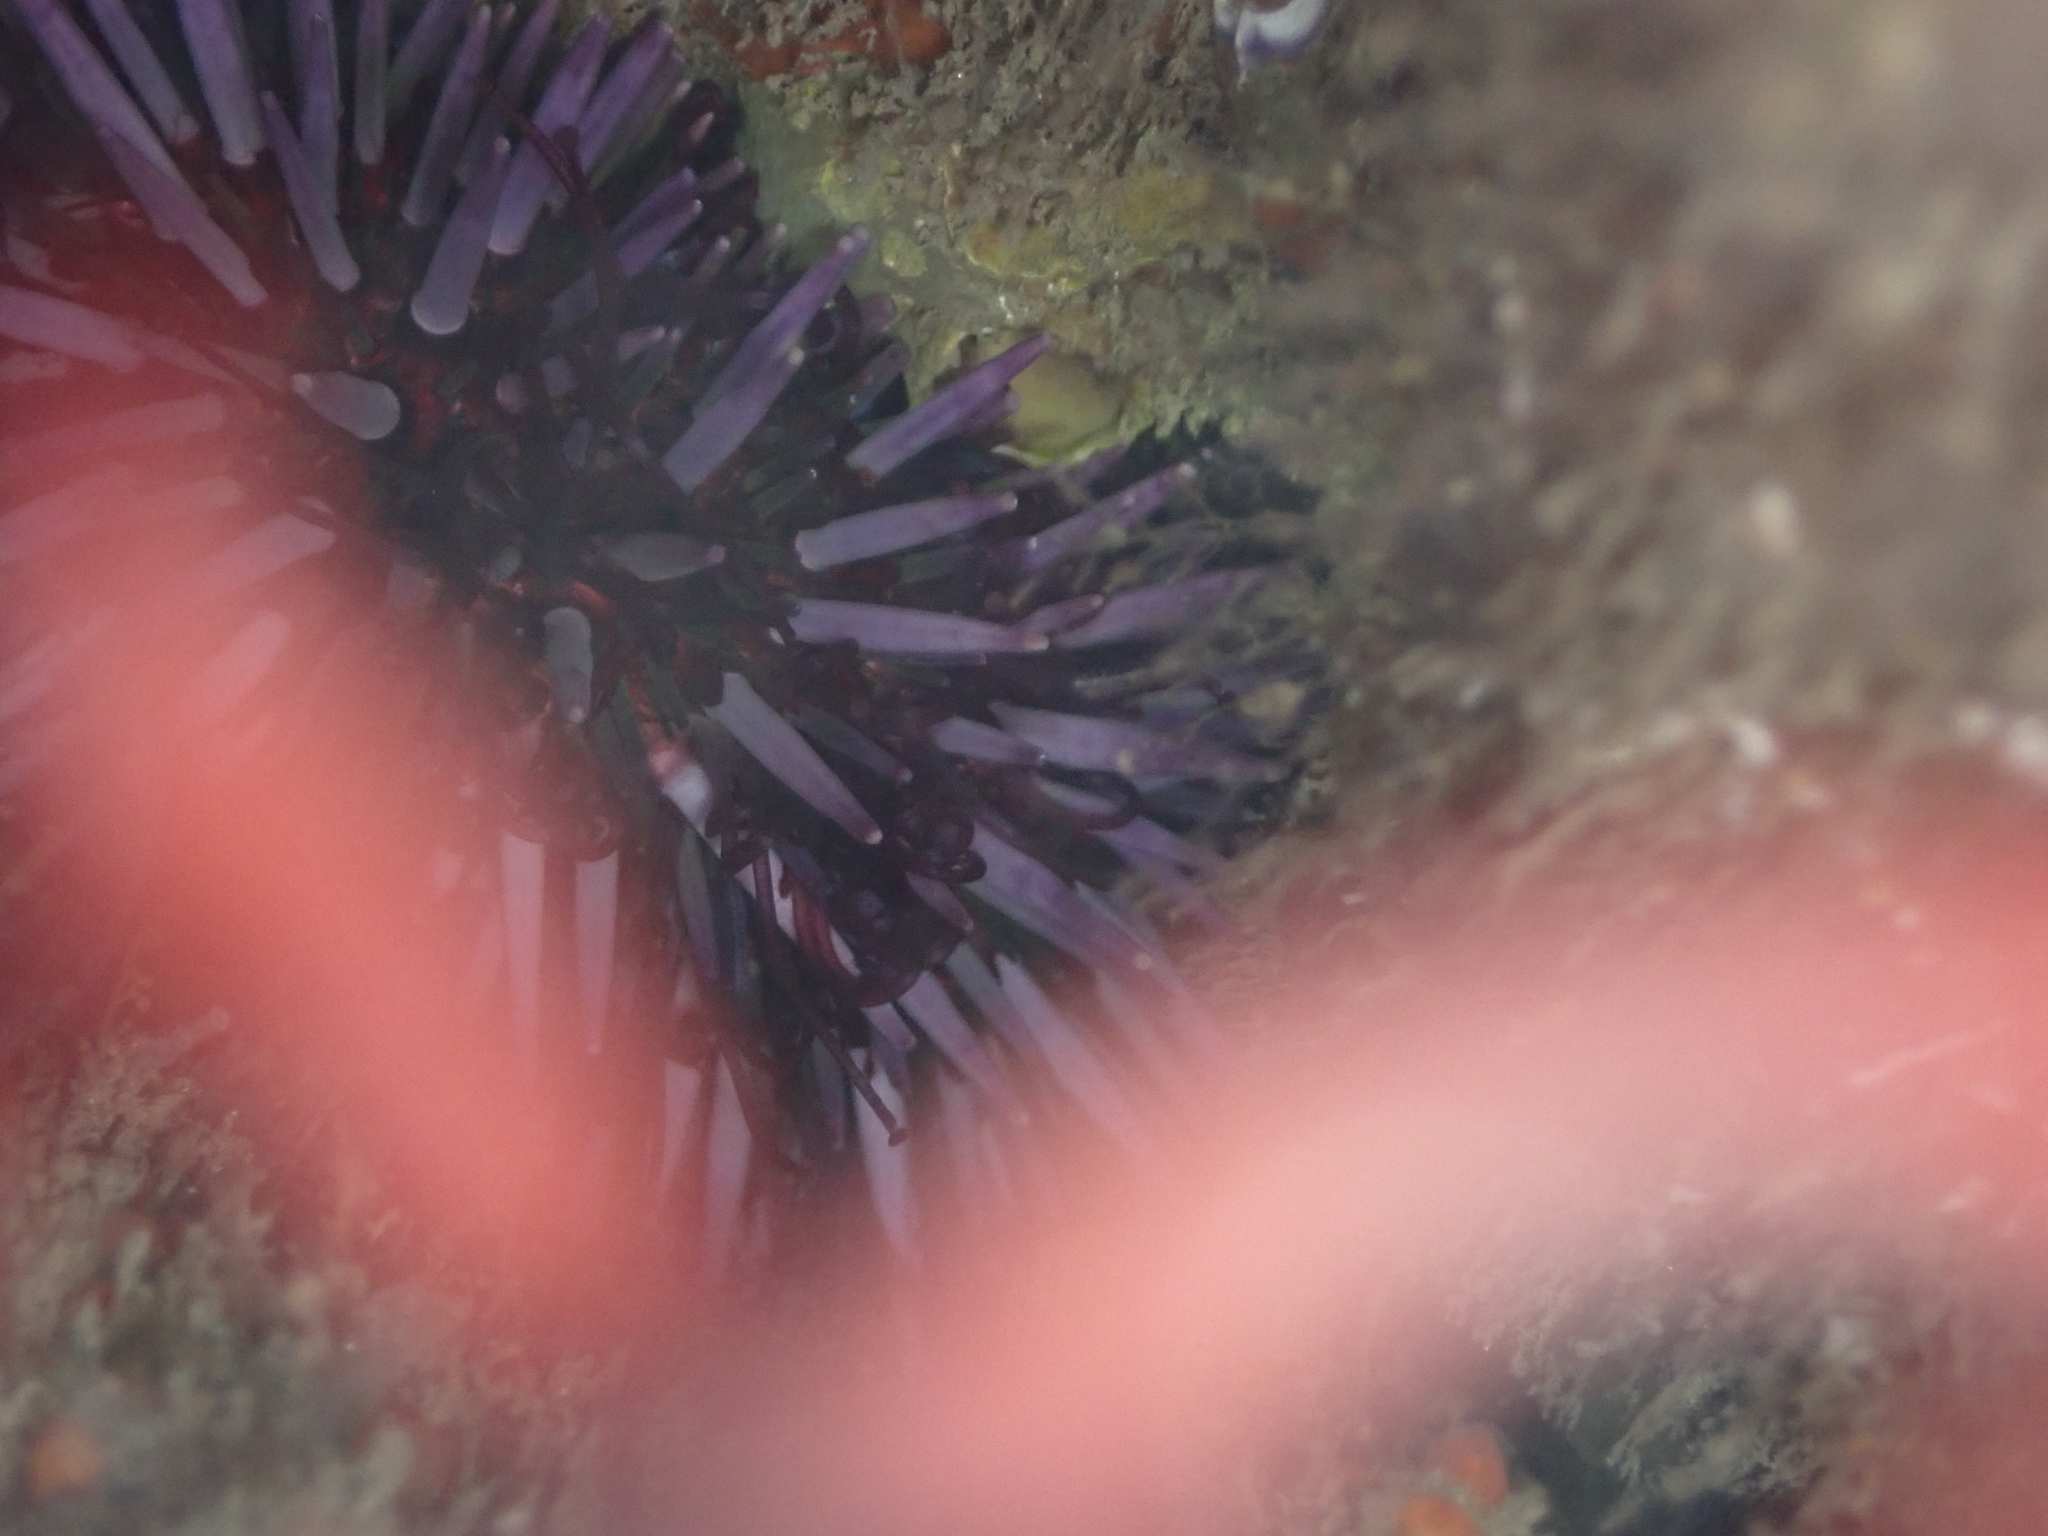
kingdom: Animalia
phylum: Echinodermata
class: Echinoidea
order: Camarodonta
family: Strongylocentrotidae
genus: Strongylocentrotus
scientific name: Strongylocentrotus purpuratus
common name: Purple sea urchin
